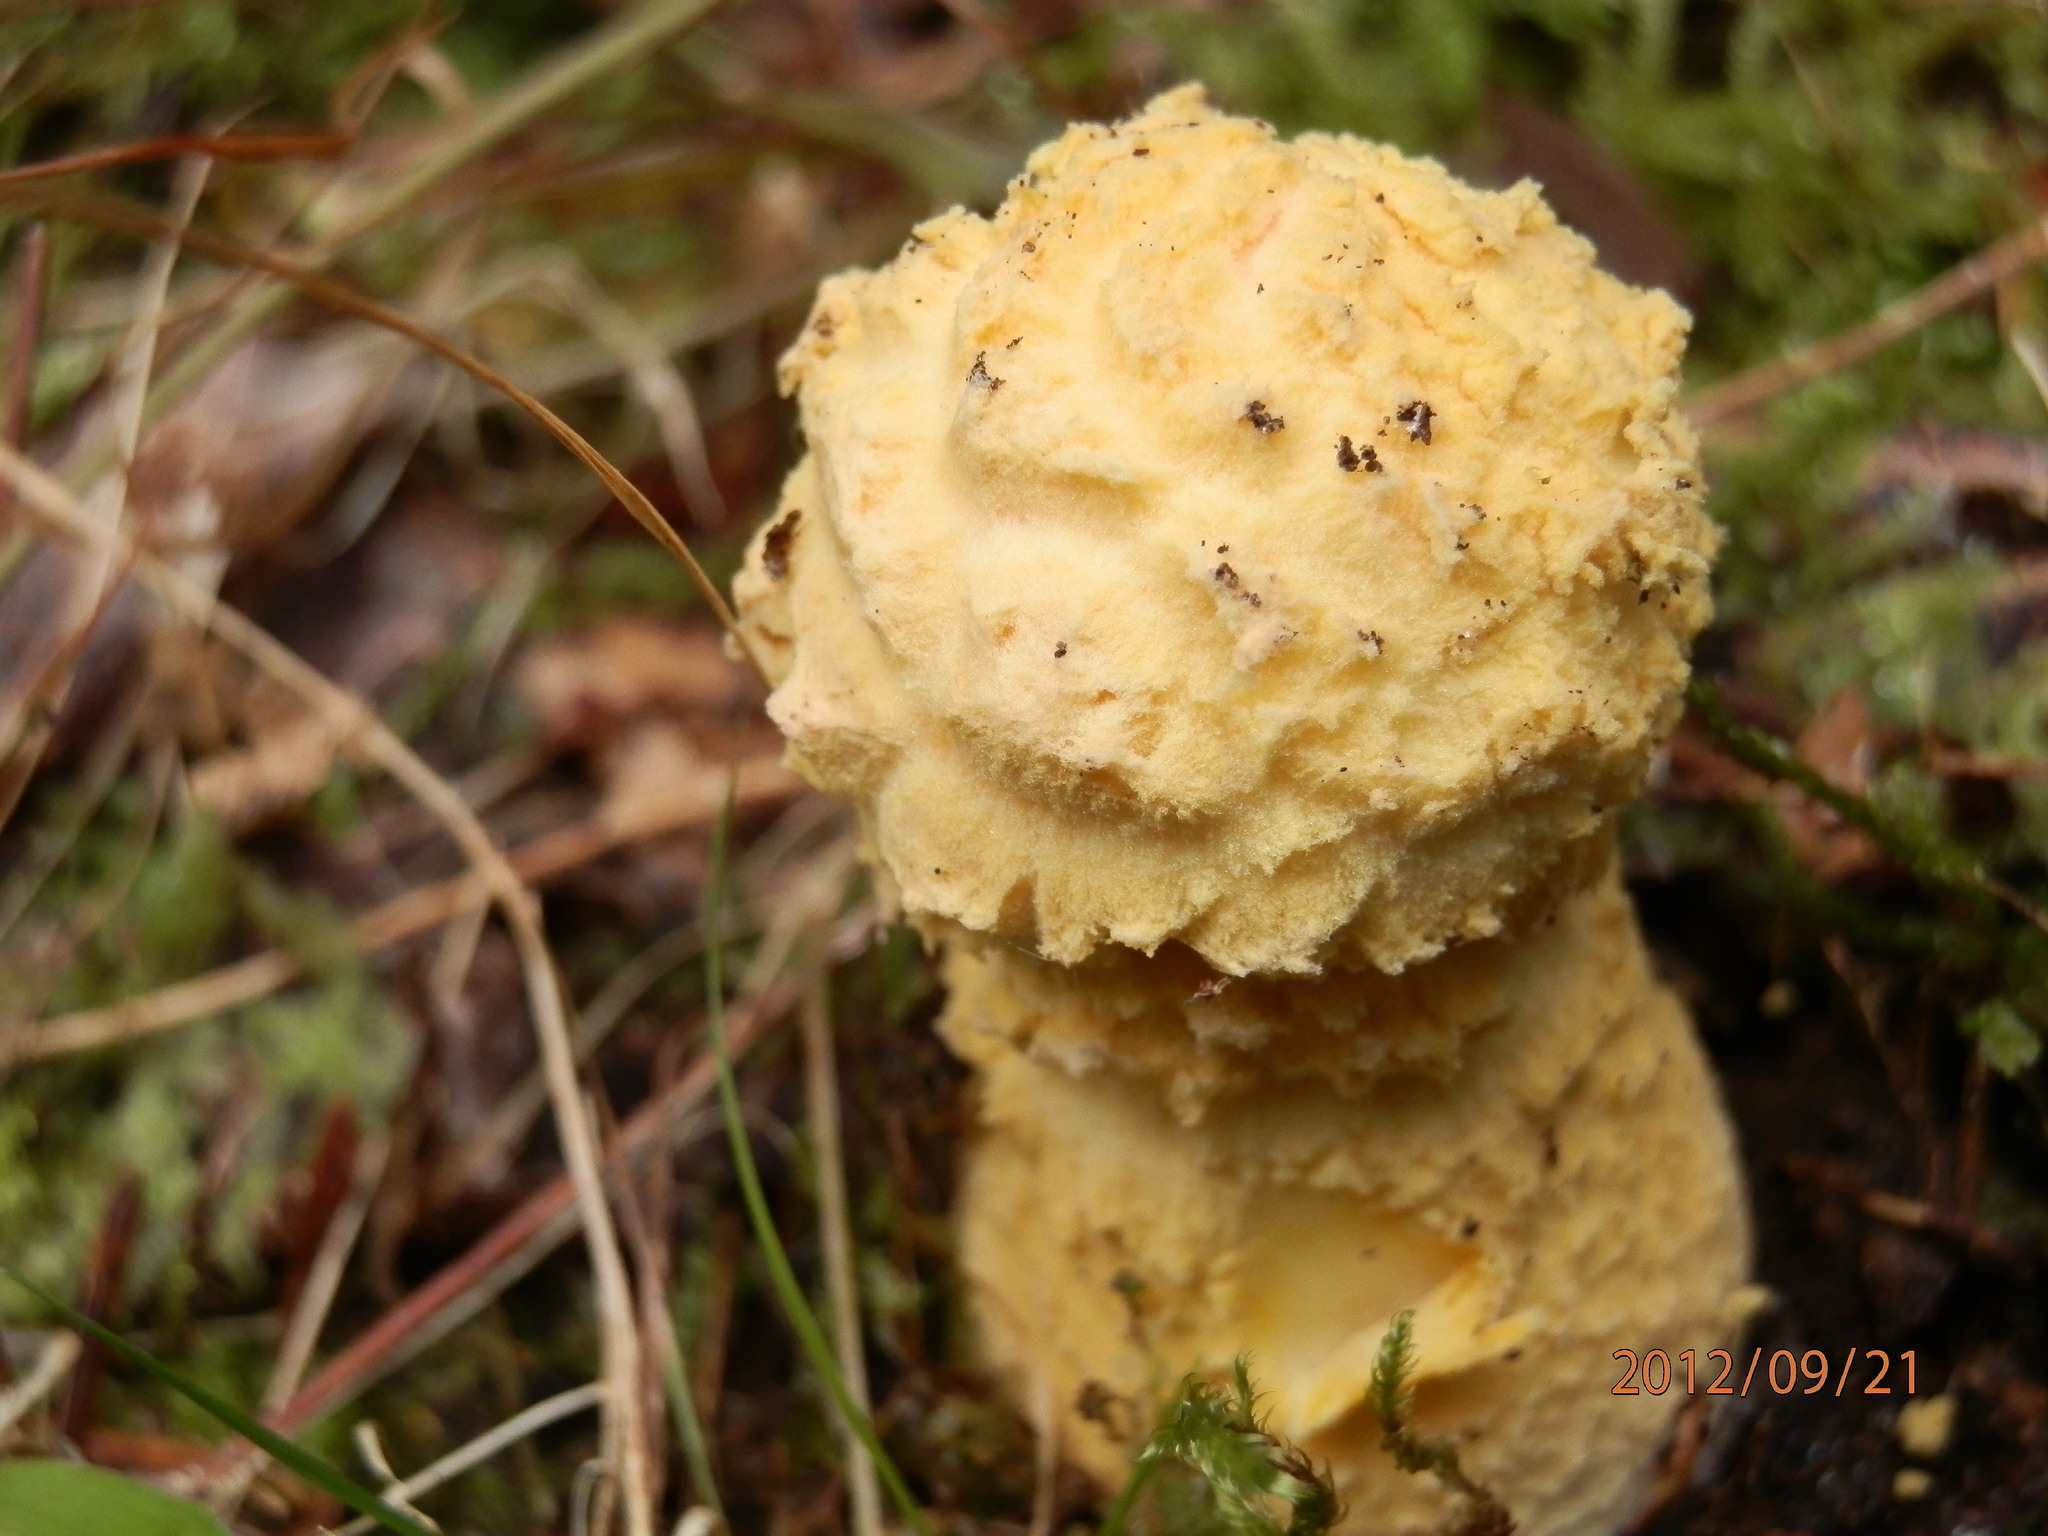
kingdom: Fungi
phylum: Basidiomycota
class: Agaricomycetes
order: Agaricales
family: Amanitaceae
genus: Amanita
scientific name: Amanita muscaria
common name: Fly agaric
